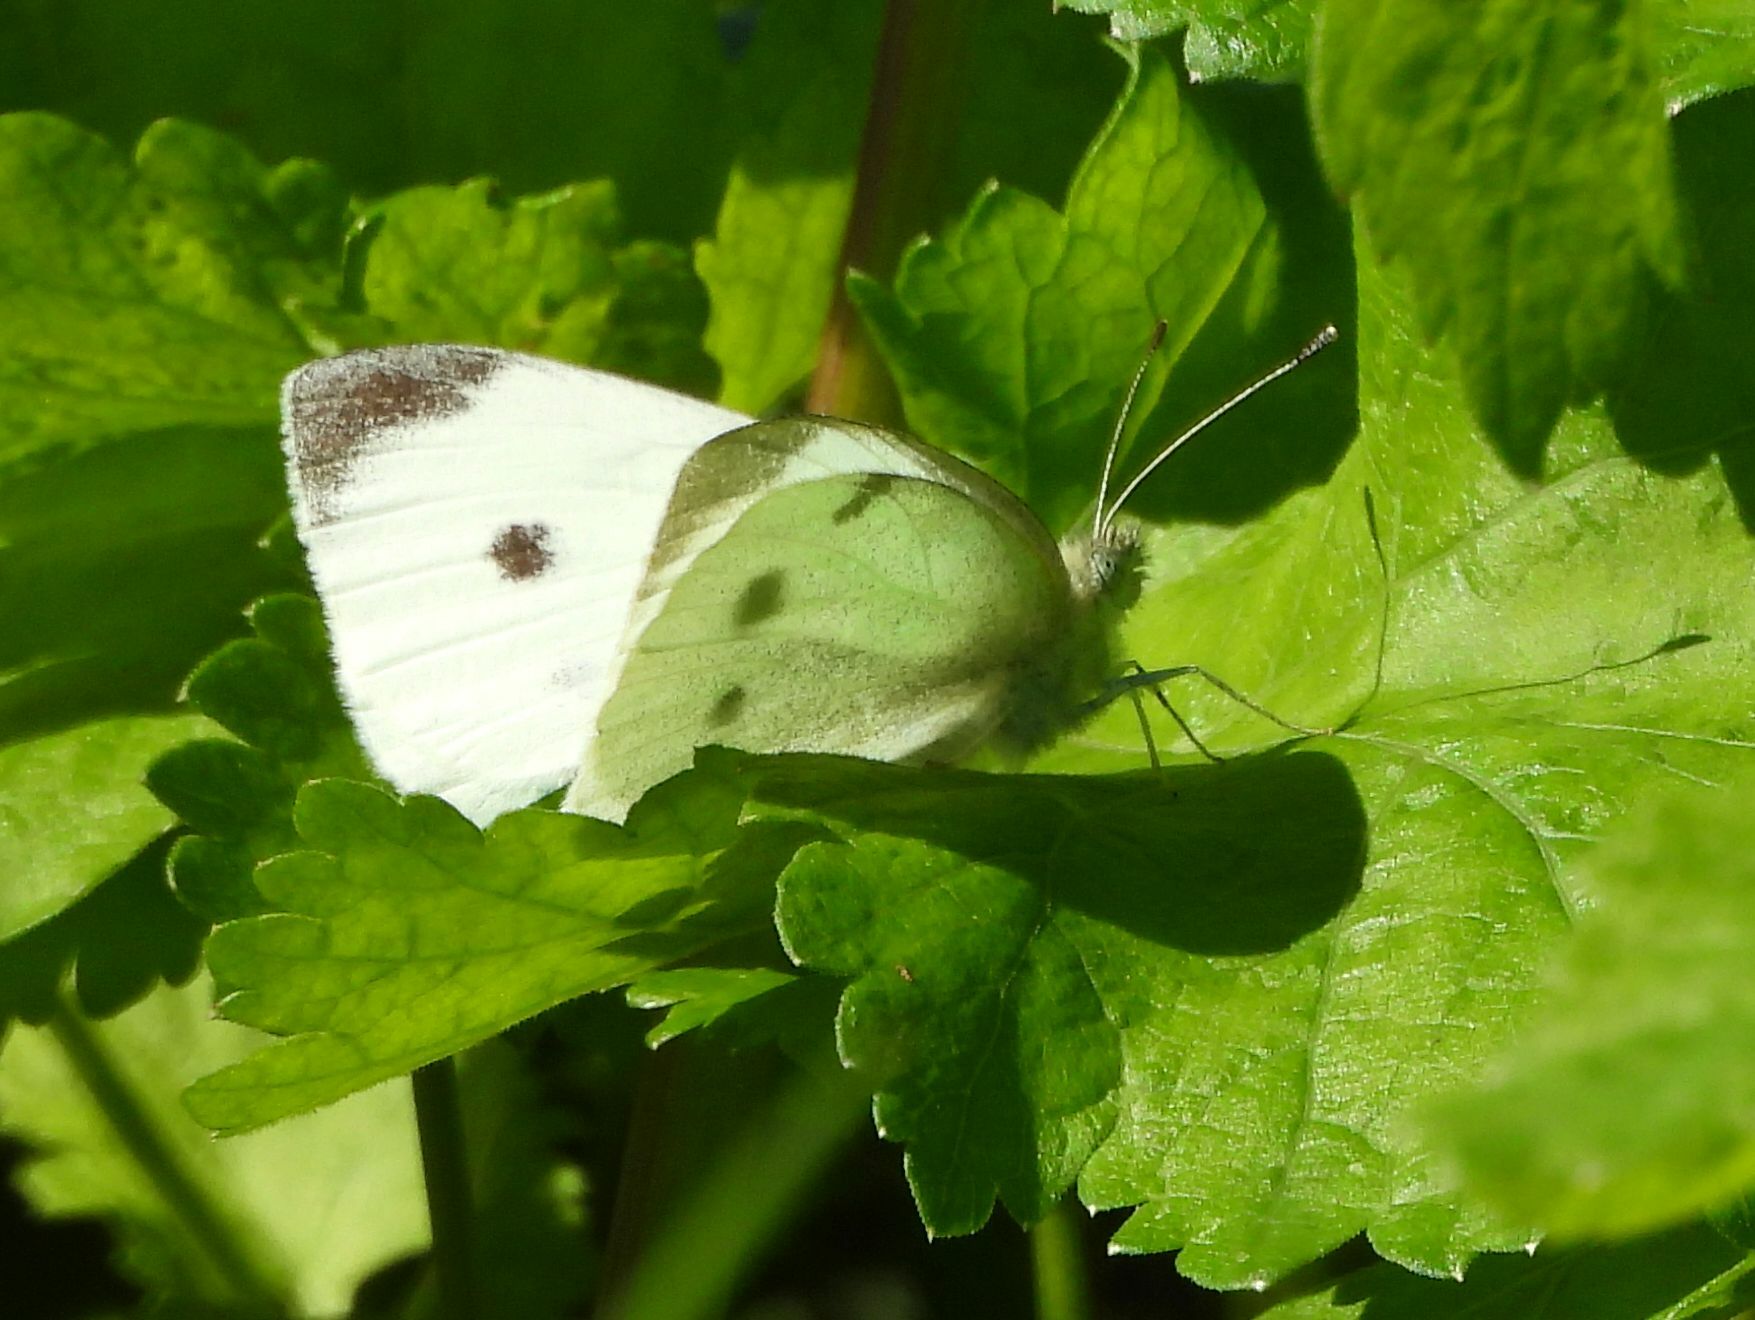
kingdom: Animalia
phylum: Arthropoda
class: Insecta
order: Lepidoptera
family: Pieridae
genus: Pieris
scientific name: Pieris rapae
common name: Small white
